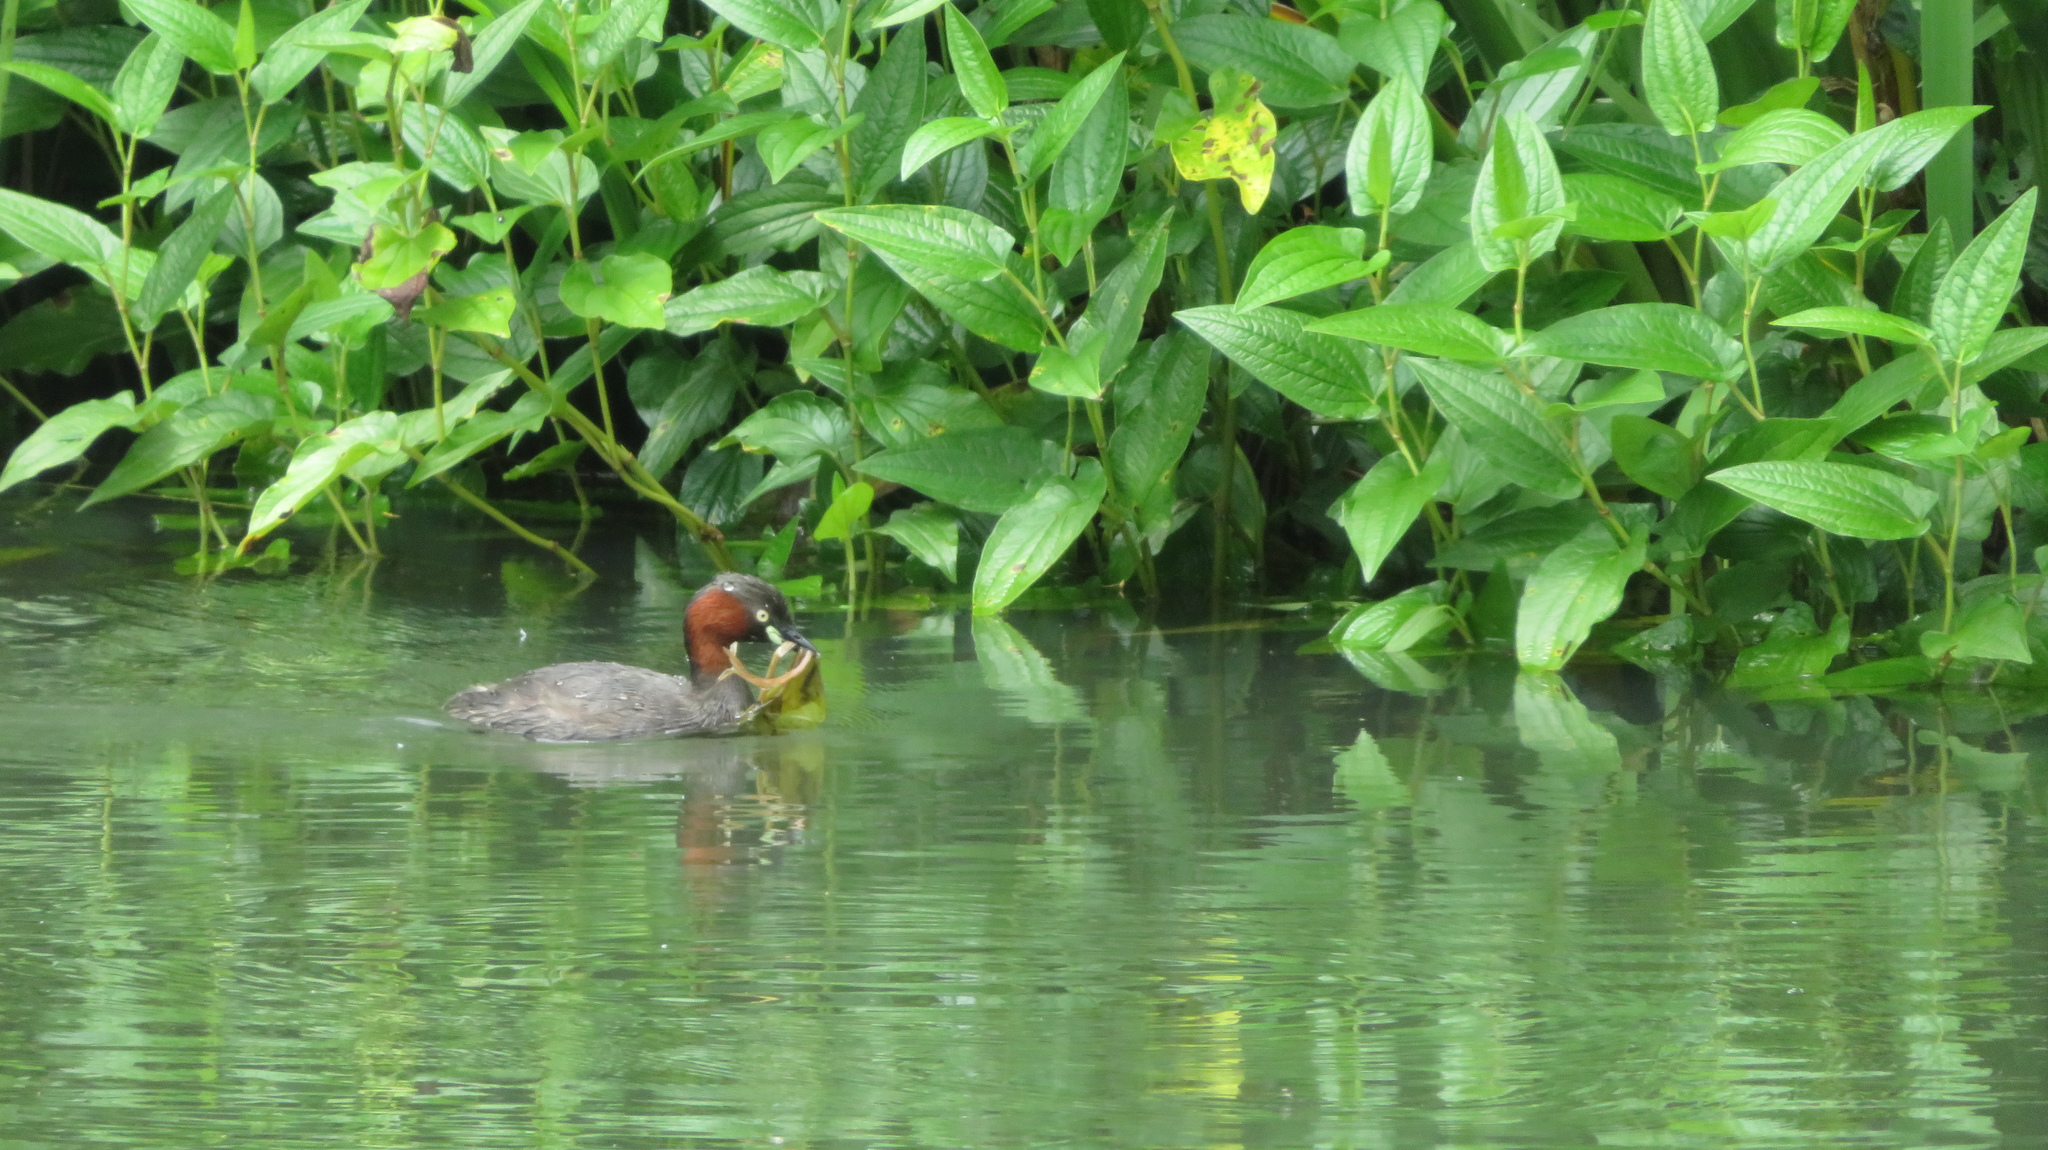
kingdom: Animalia
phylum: Chordata
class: Aves
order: Podicipediformes
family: Podicipedidae
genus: Tachybaptus
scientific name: Tachybaptus ruficollis
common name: Little grebe
